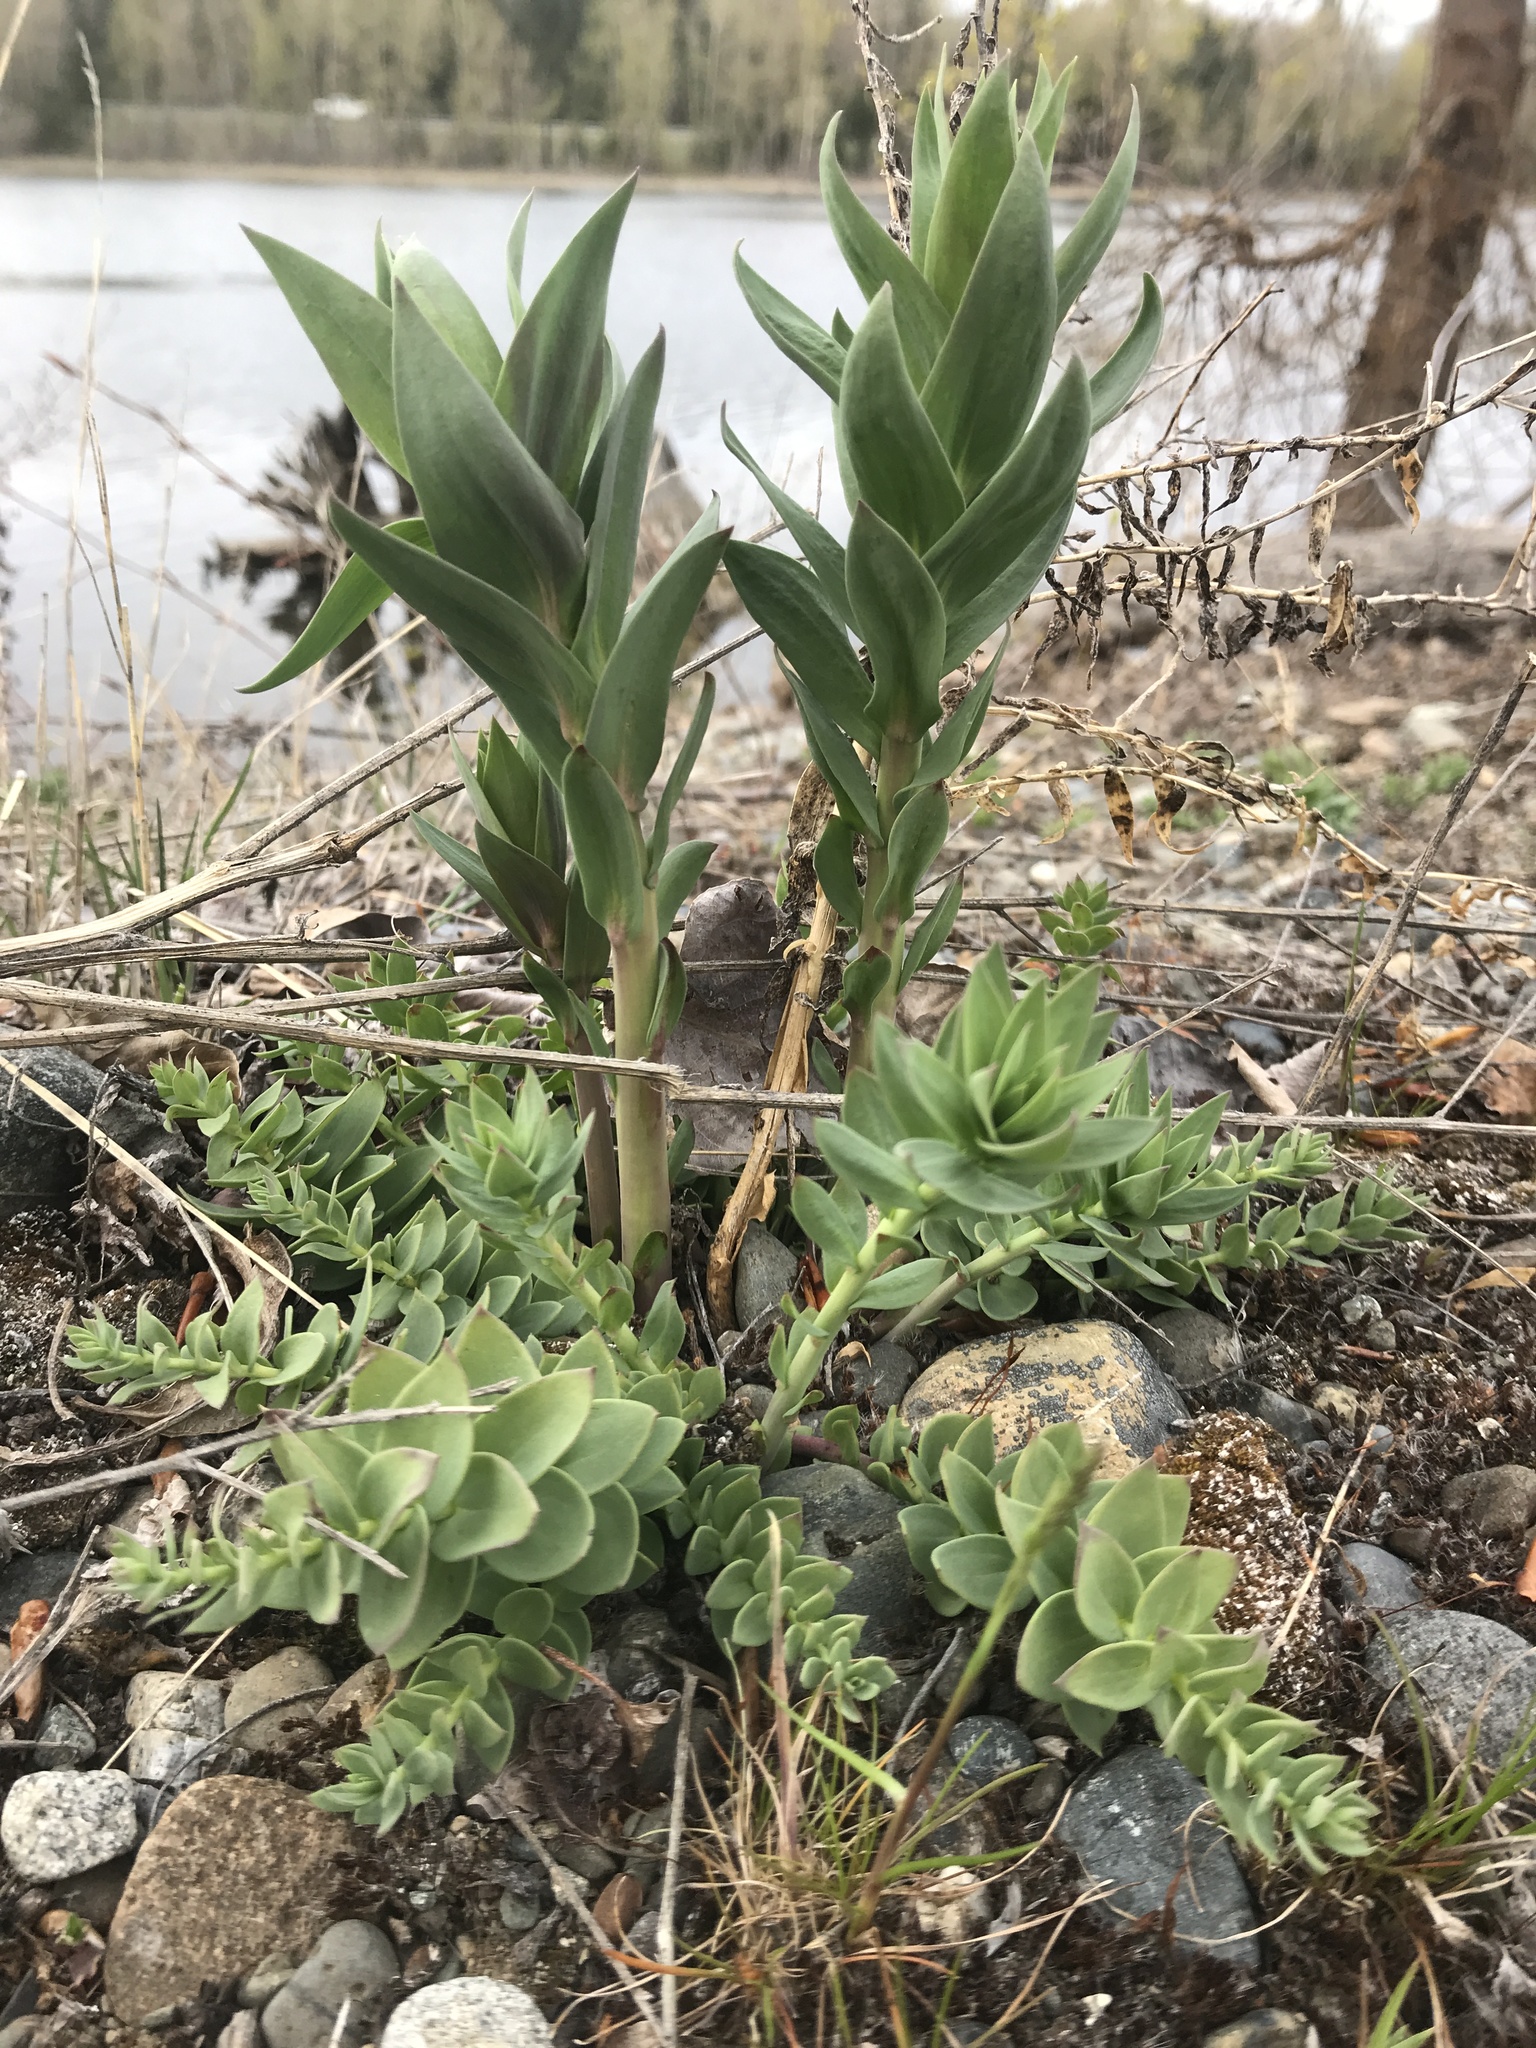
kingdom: Plantae
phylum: Tracheophyta
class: Magnoliopsida
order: Lamiales
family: Plantaginaceae
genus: Linaria
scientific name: Linaria dalmatica
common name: Dalmatian toadflax
